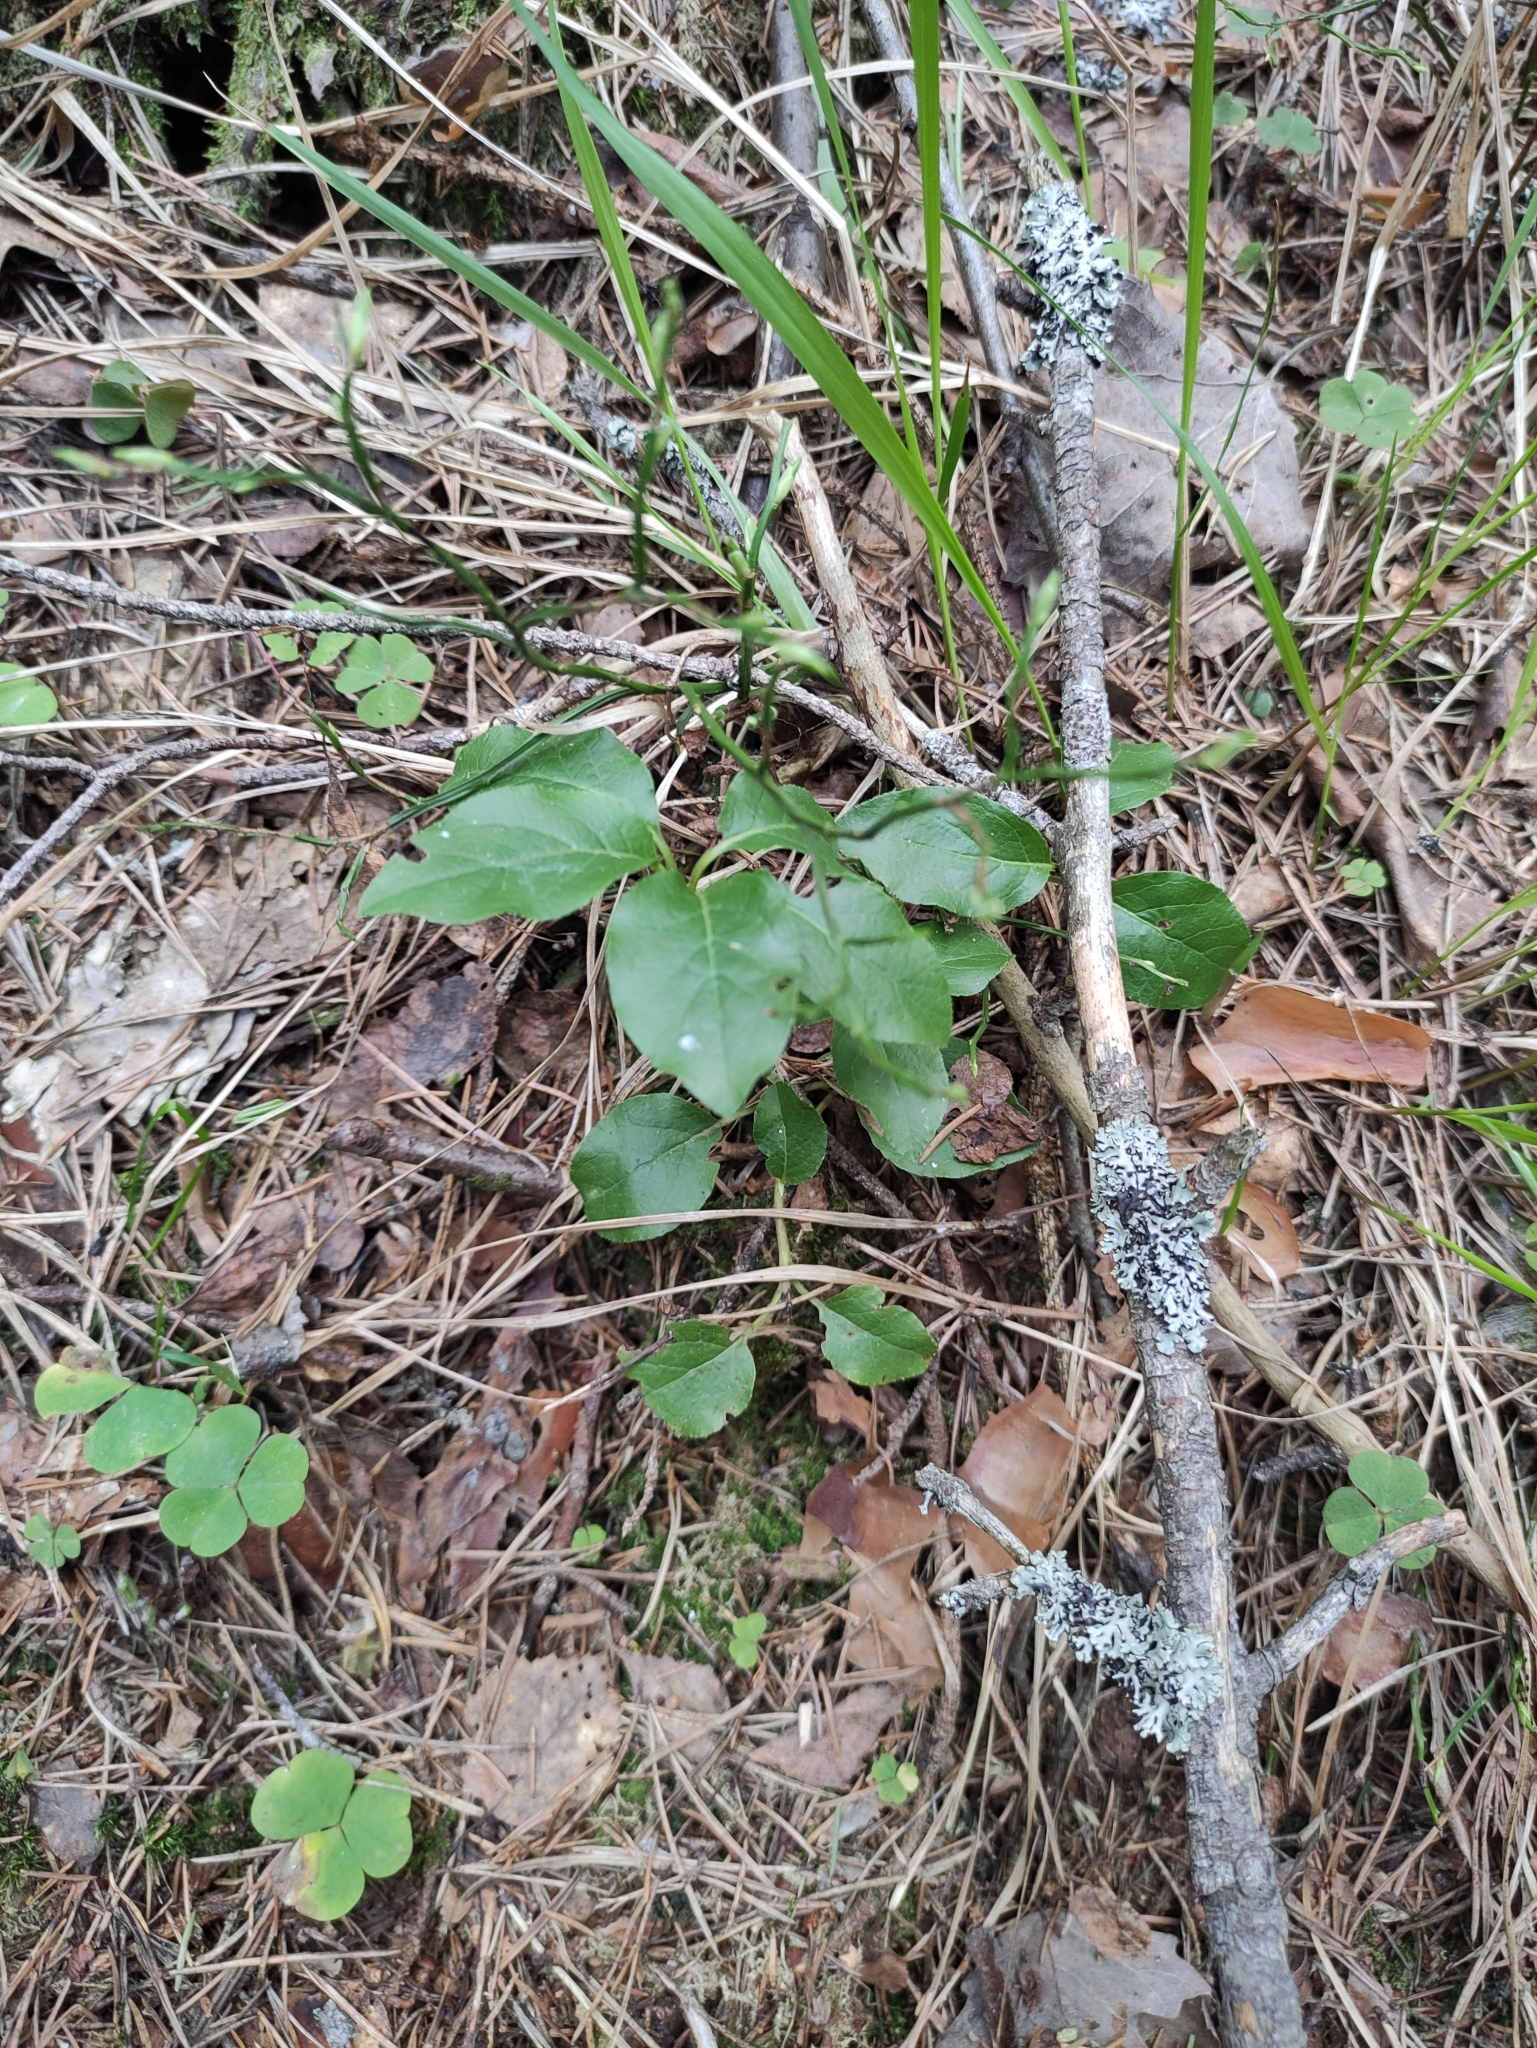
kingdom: Plantae
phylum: Tracheophyta
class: Magnoliopsida
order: Ericales
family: Ericaceae
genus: Orthilia
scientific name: Orthilia secunda
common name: One-sided orthilia
